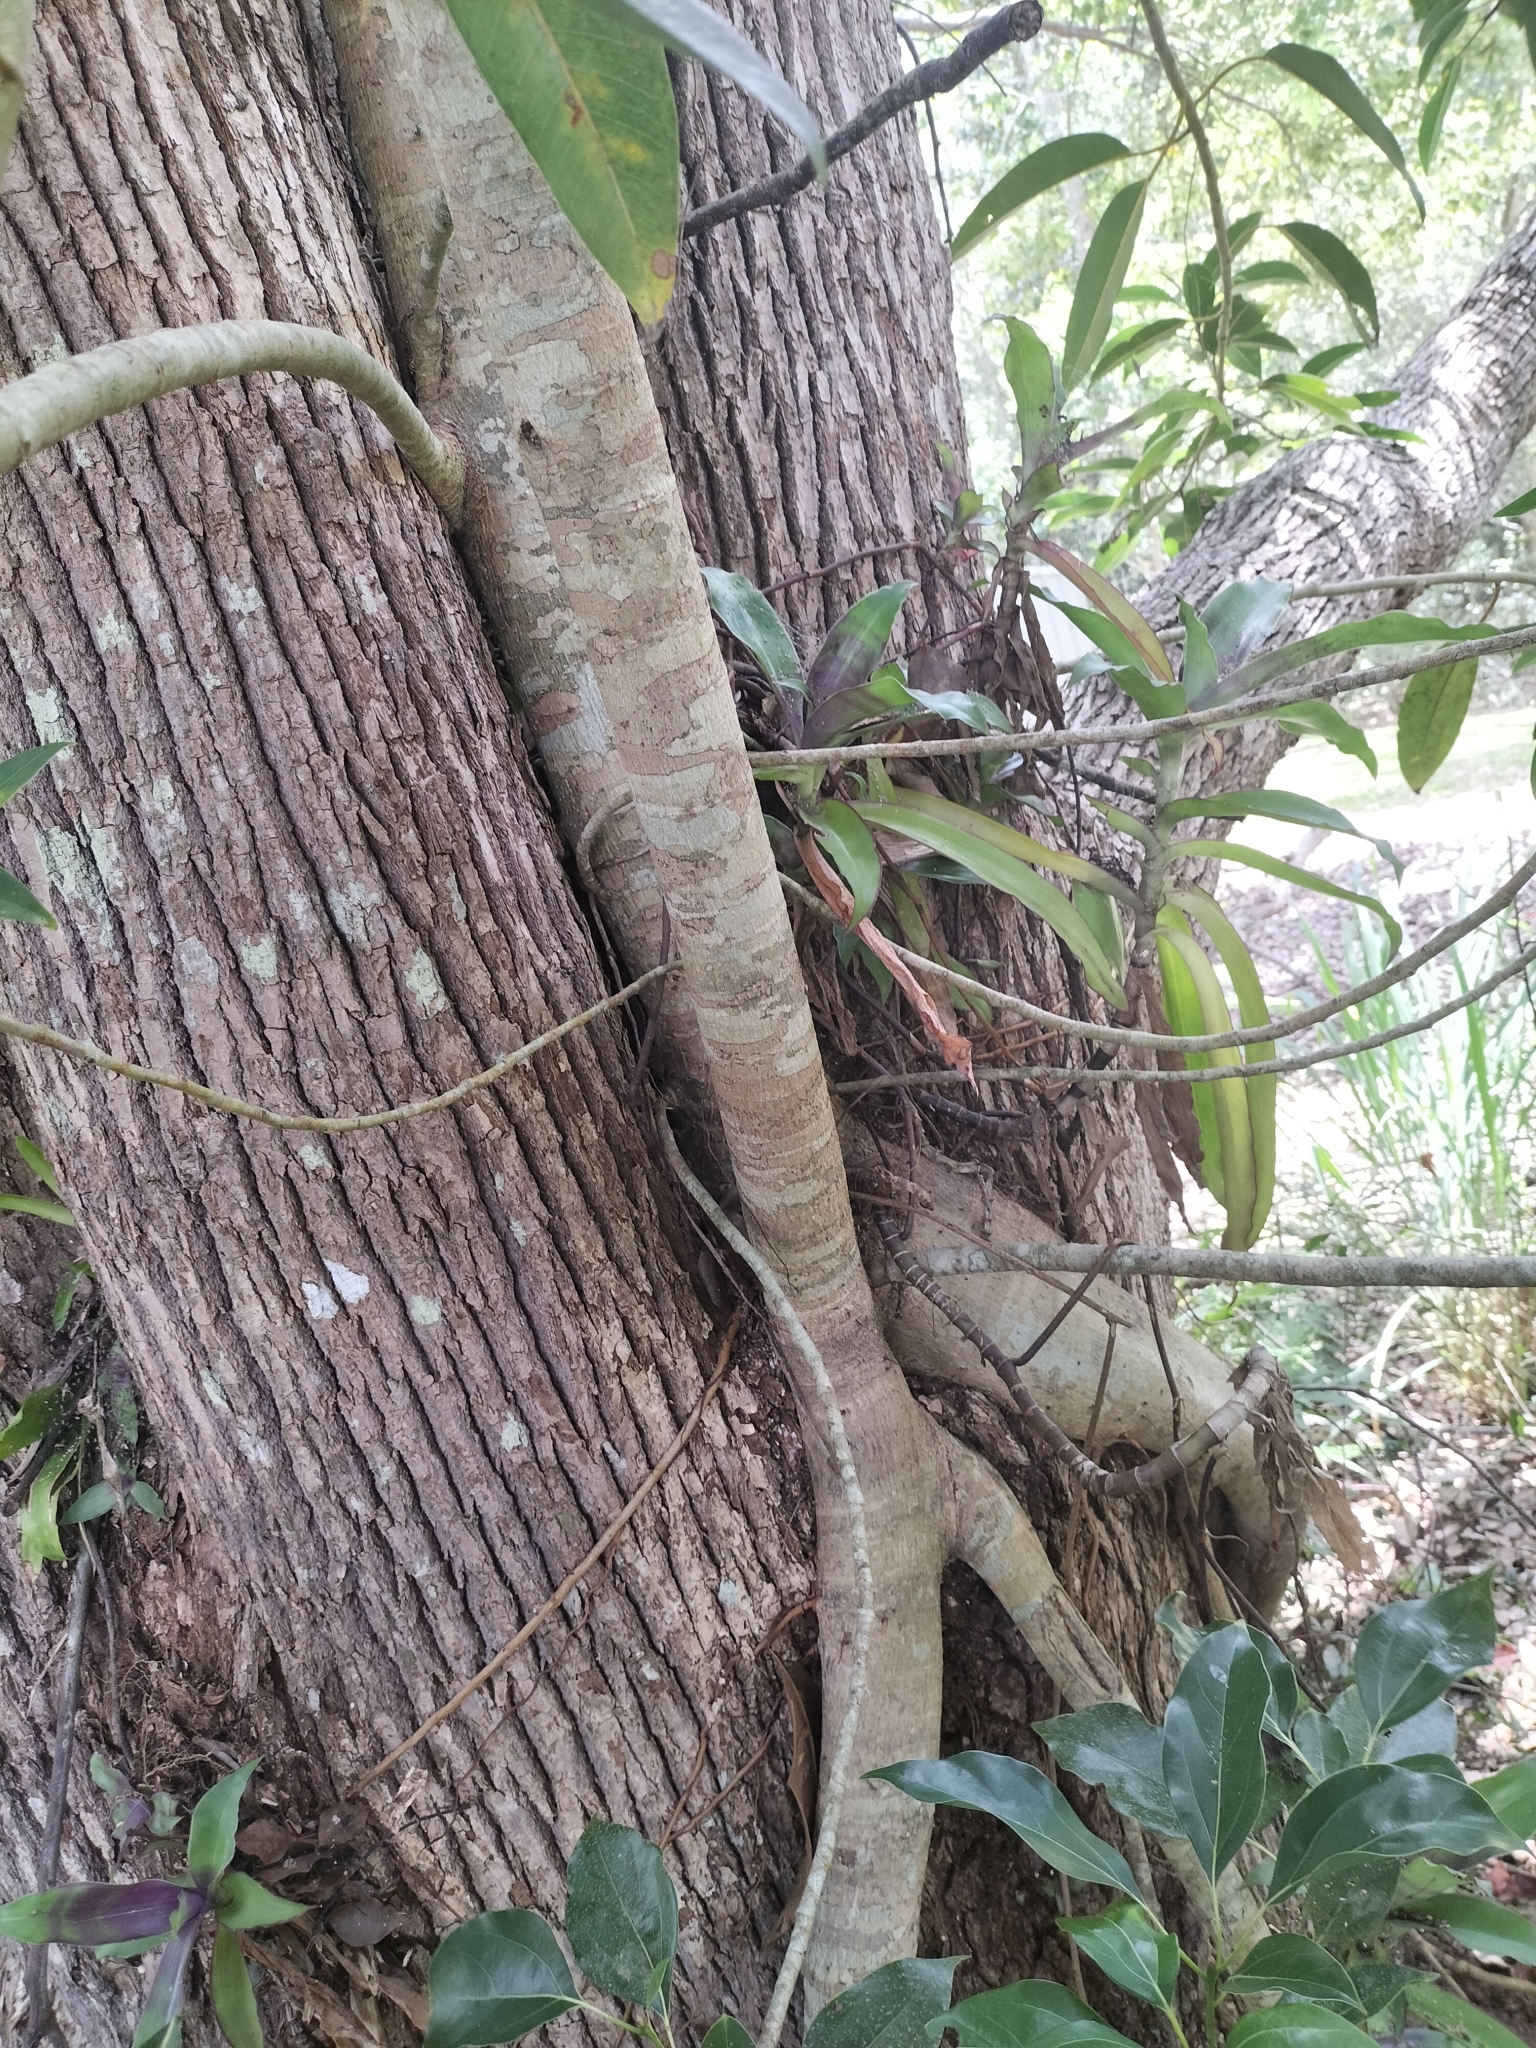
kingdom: Plantae
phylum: Tracheophyta
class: Magnoliopsida
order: Rosales
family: Moraceae
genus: Ficus
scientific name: Ficus watkinsiana
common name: Watkins fig
